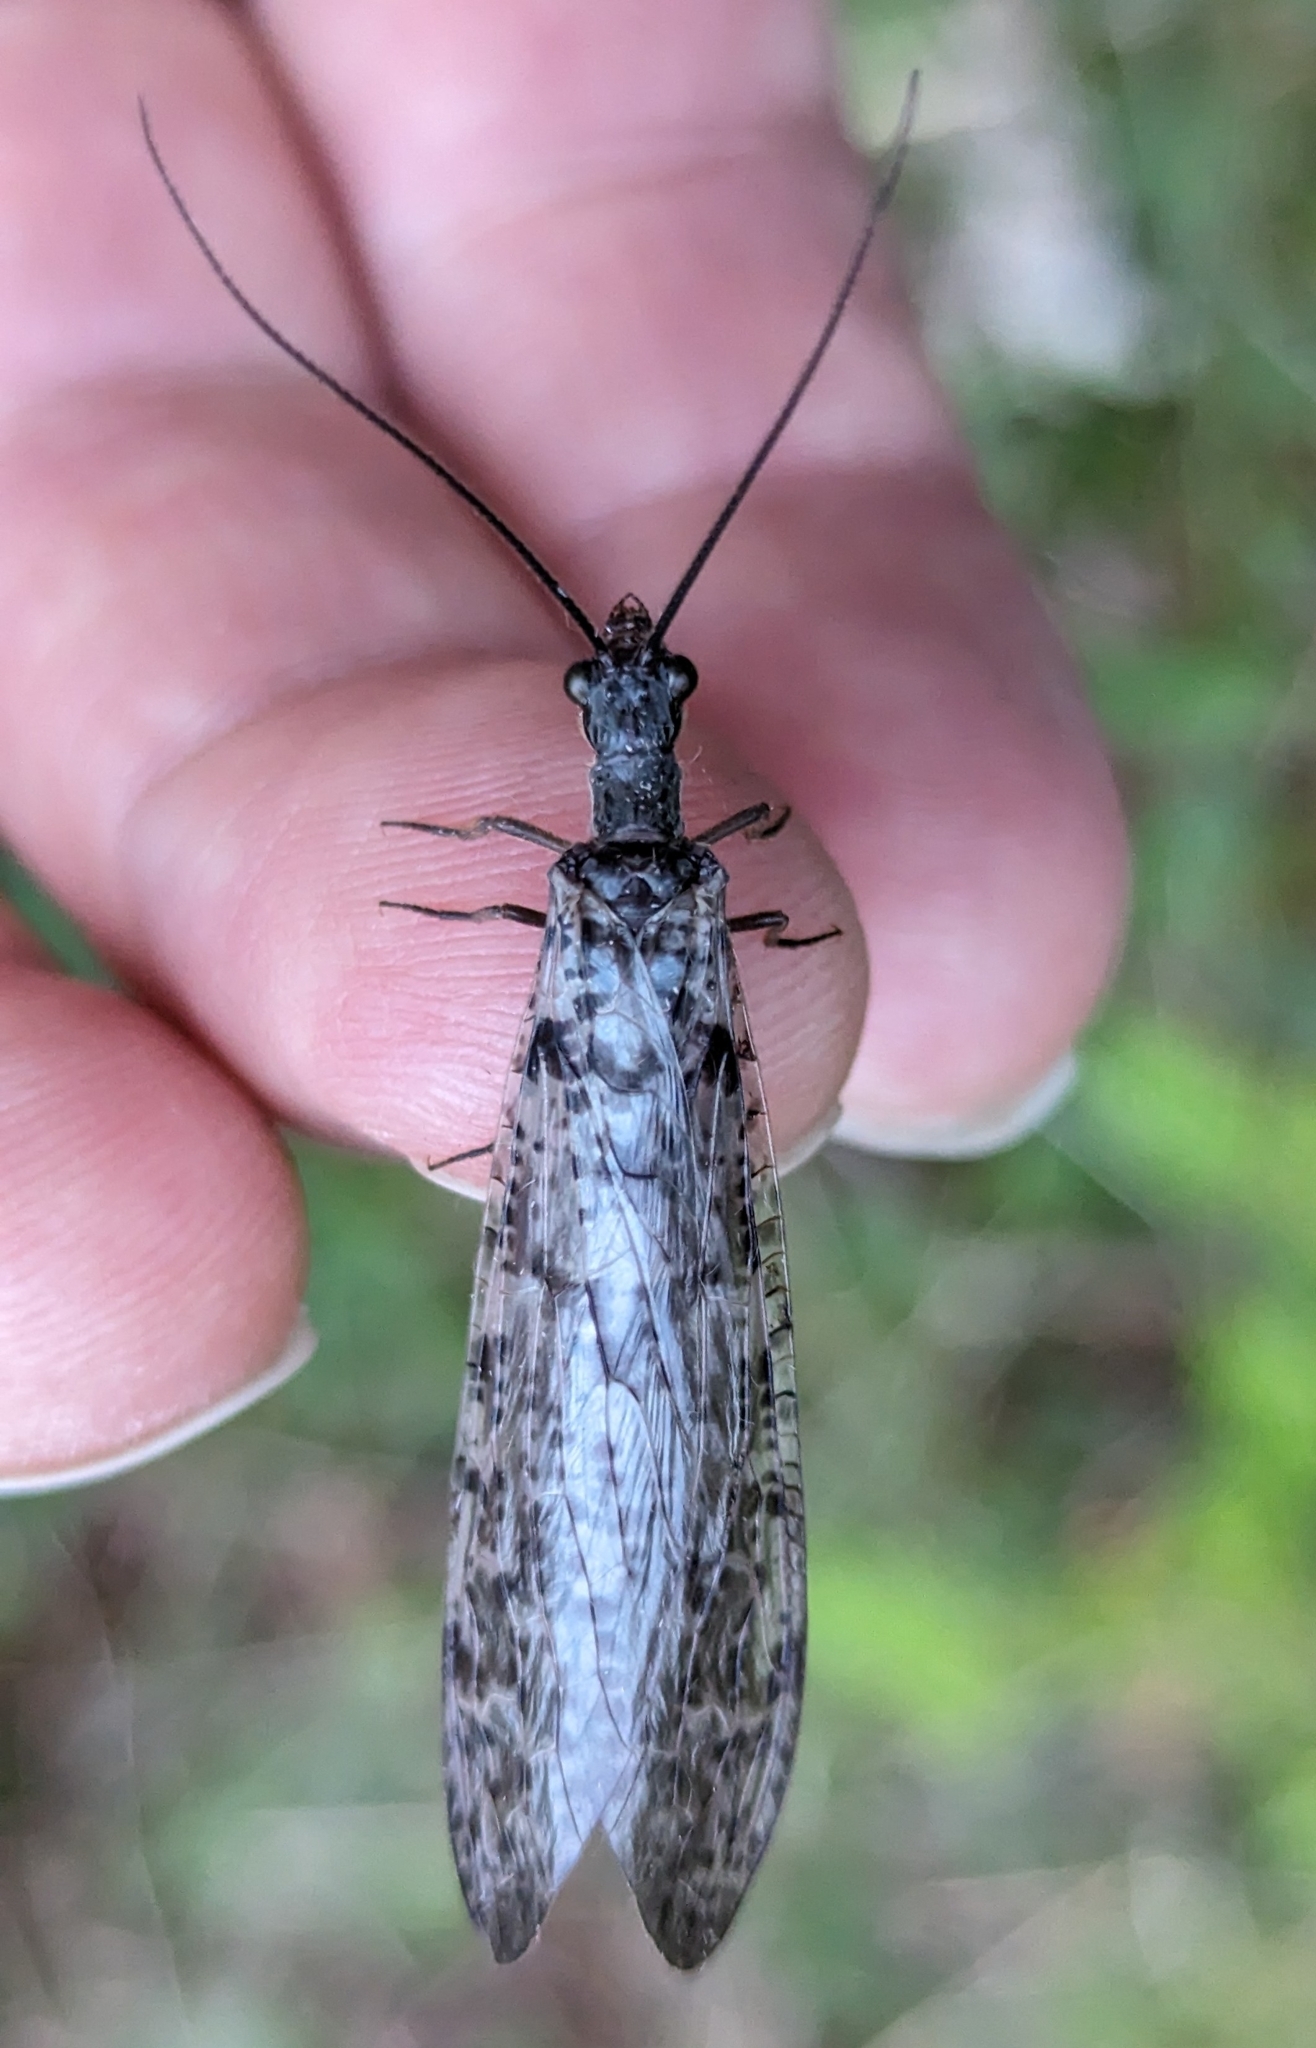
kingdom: Animalia
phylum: Arthropoda
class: Insecta
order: Megaloptera
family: Corydalidae
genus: Protochauliodes
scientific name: Protochauliodes spenceri
